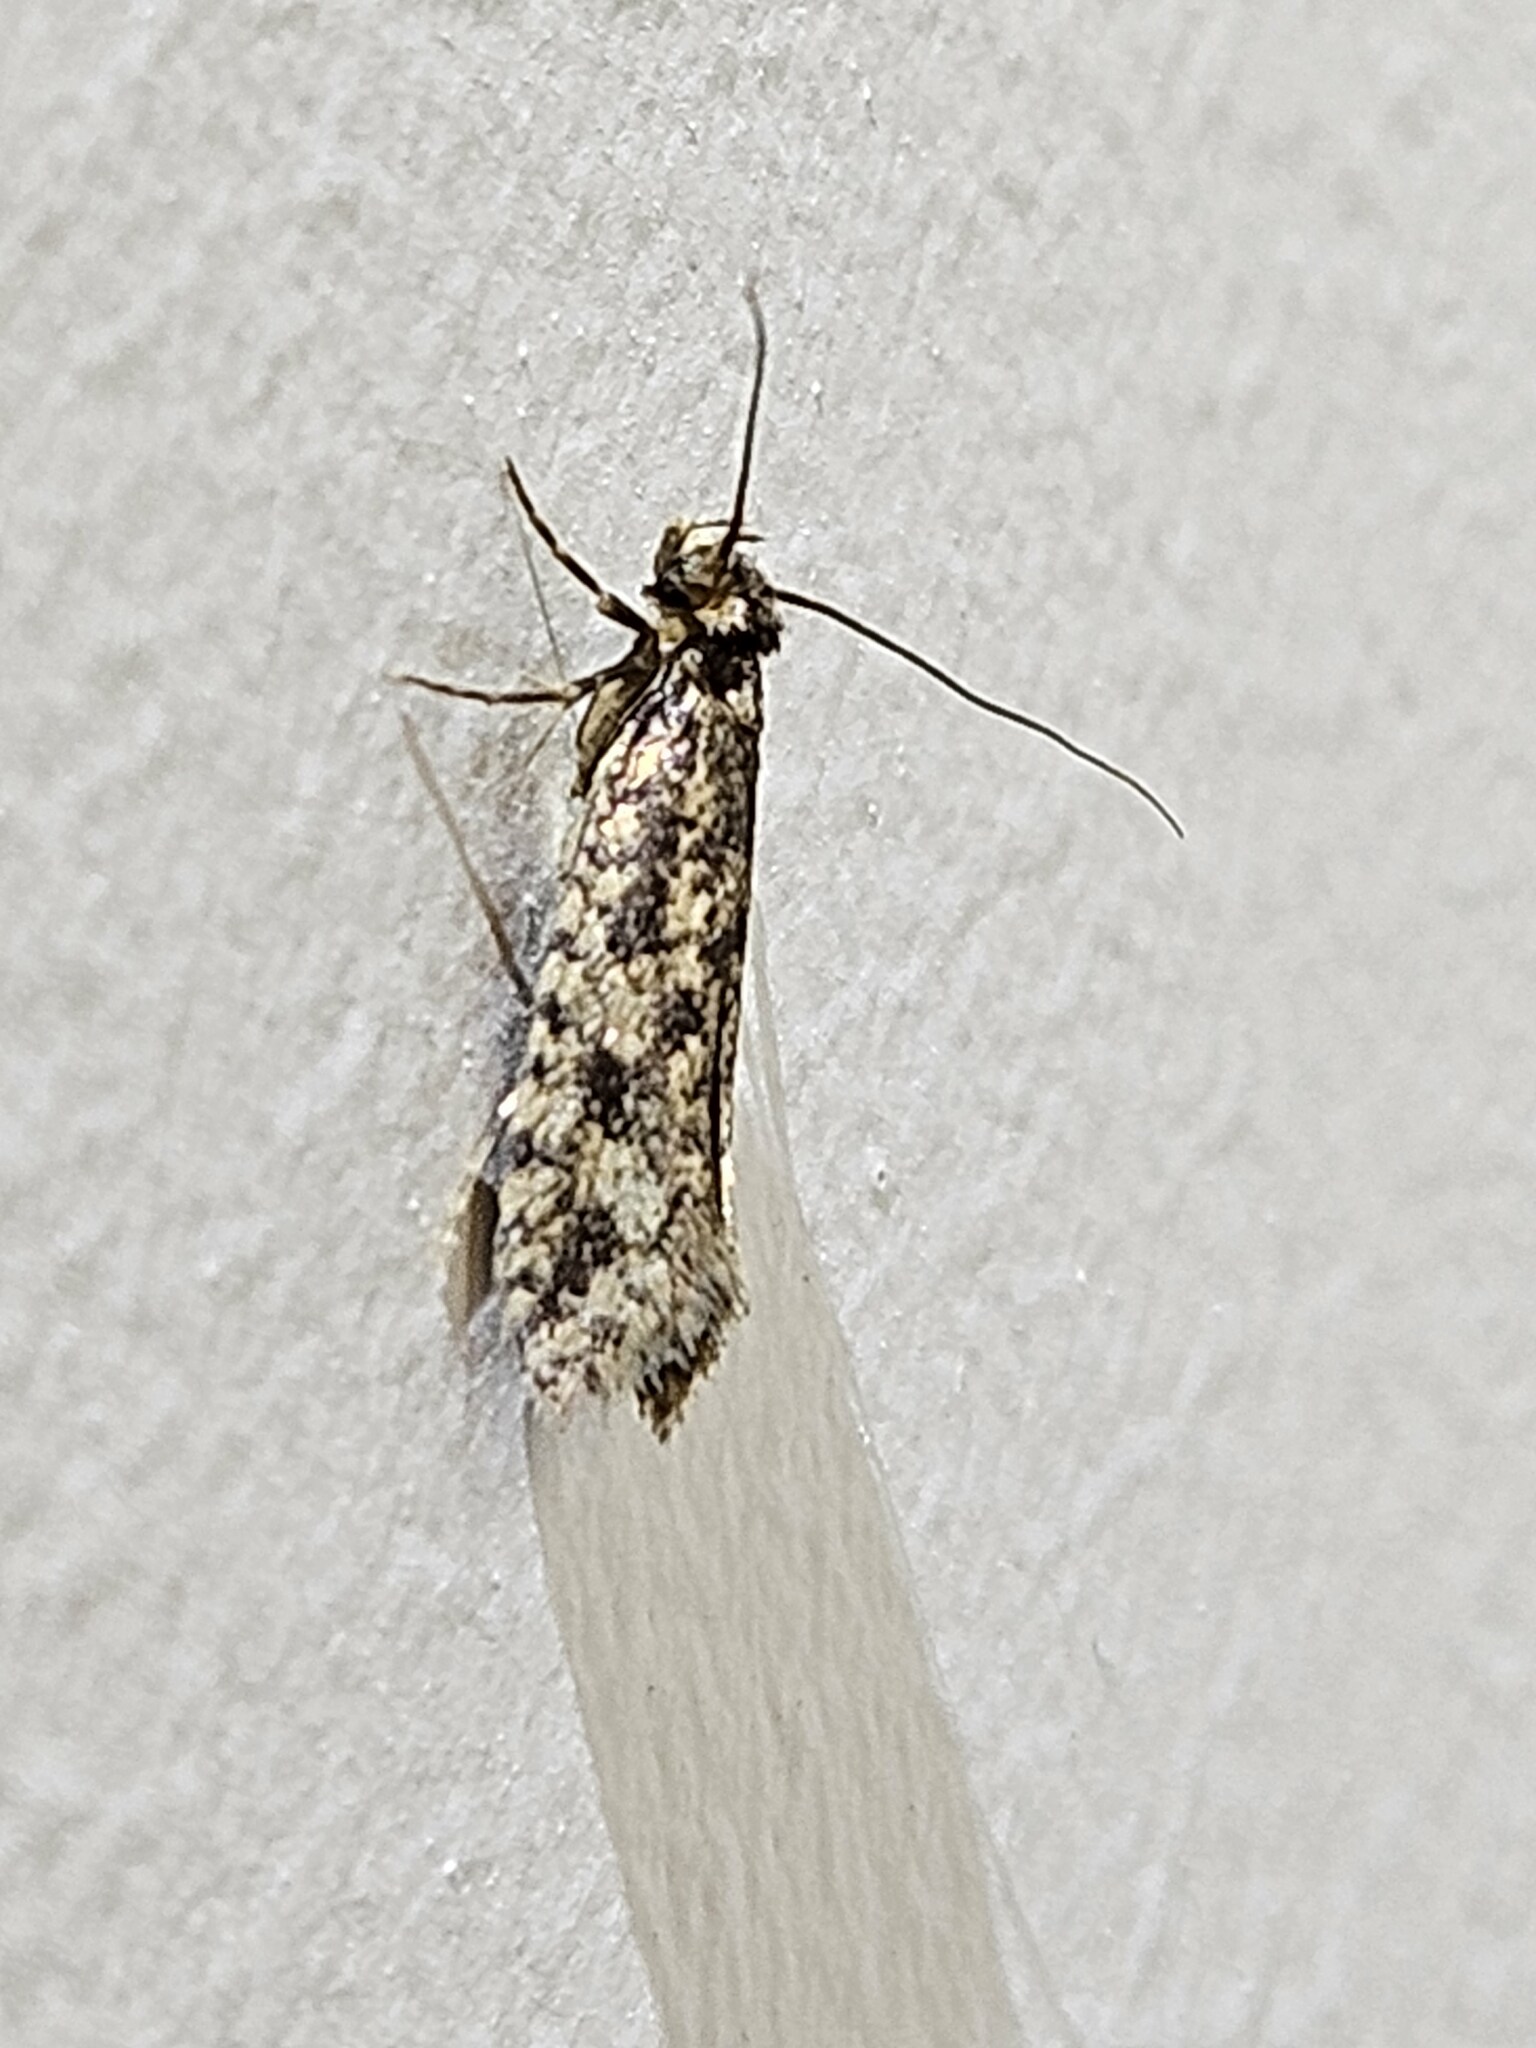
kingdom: Animalia
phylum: Arthropoda
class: Insecta
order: Lepidoptera
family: Tineidae
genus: Lindera
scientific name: Lindera tessellatella
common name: Moth
